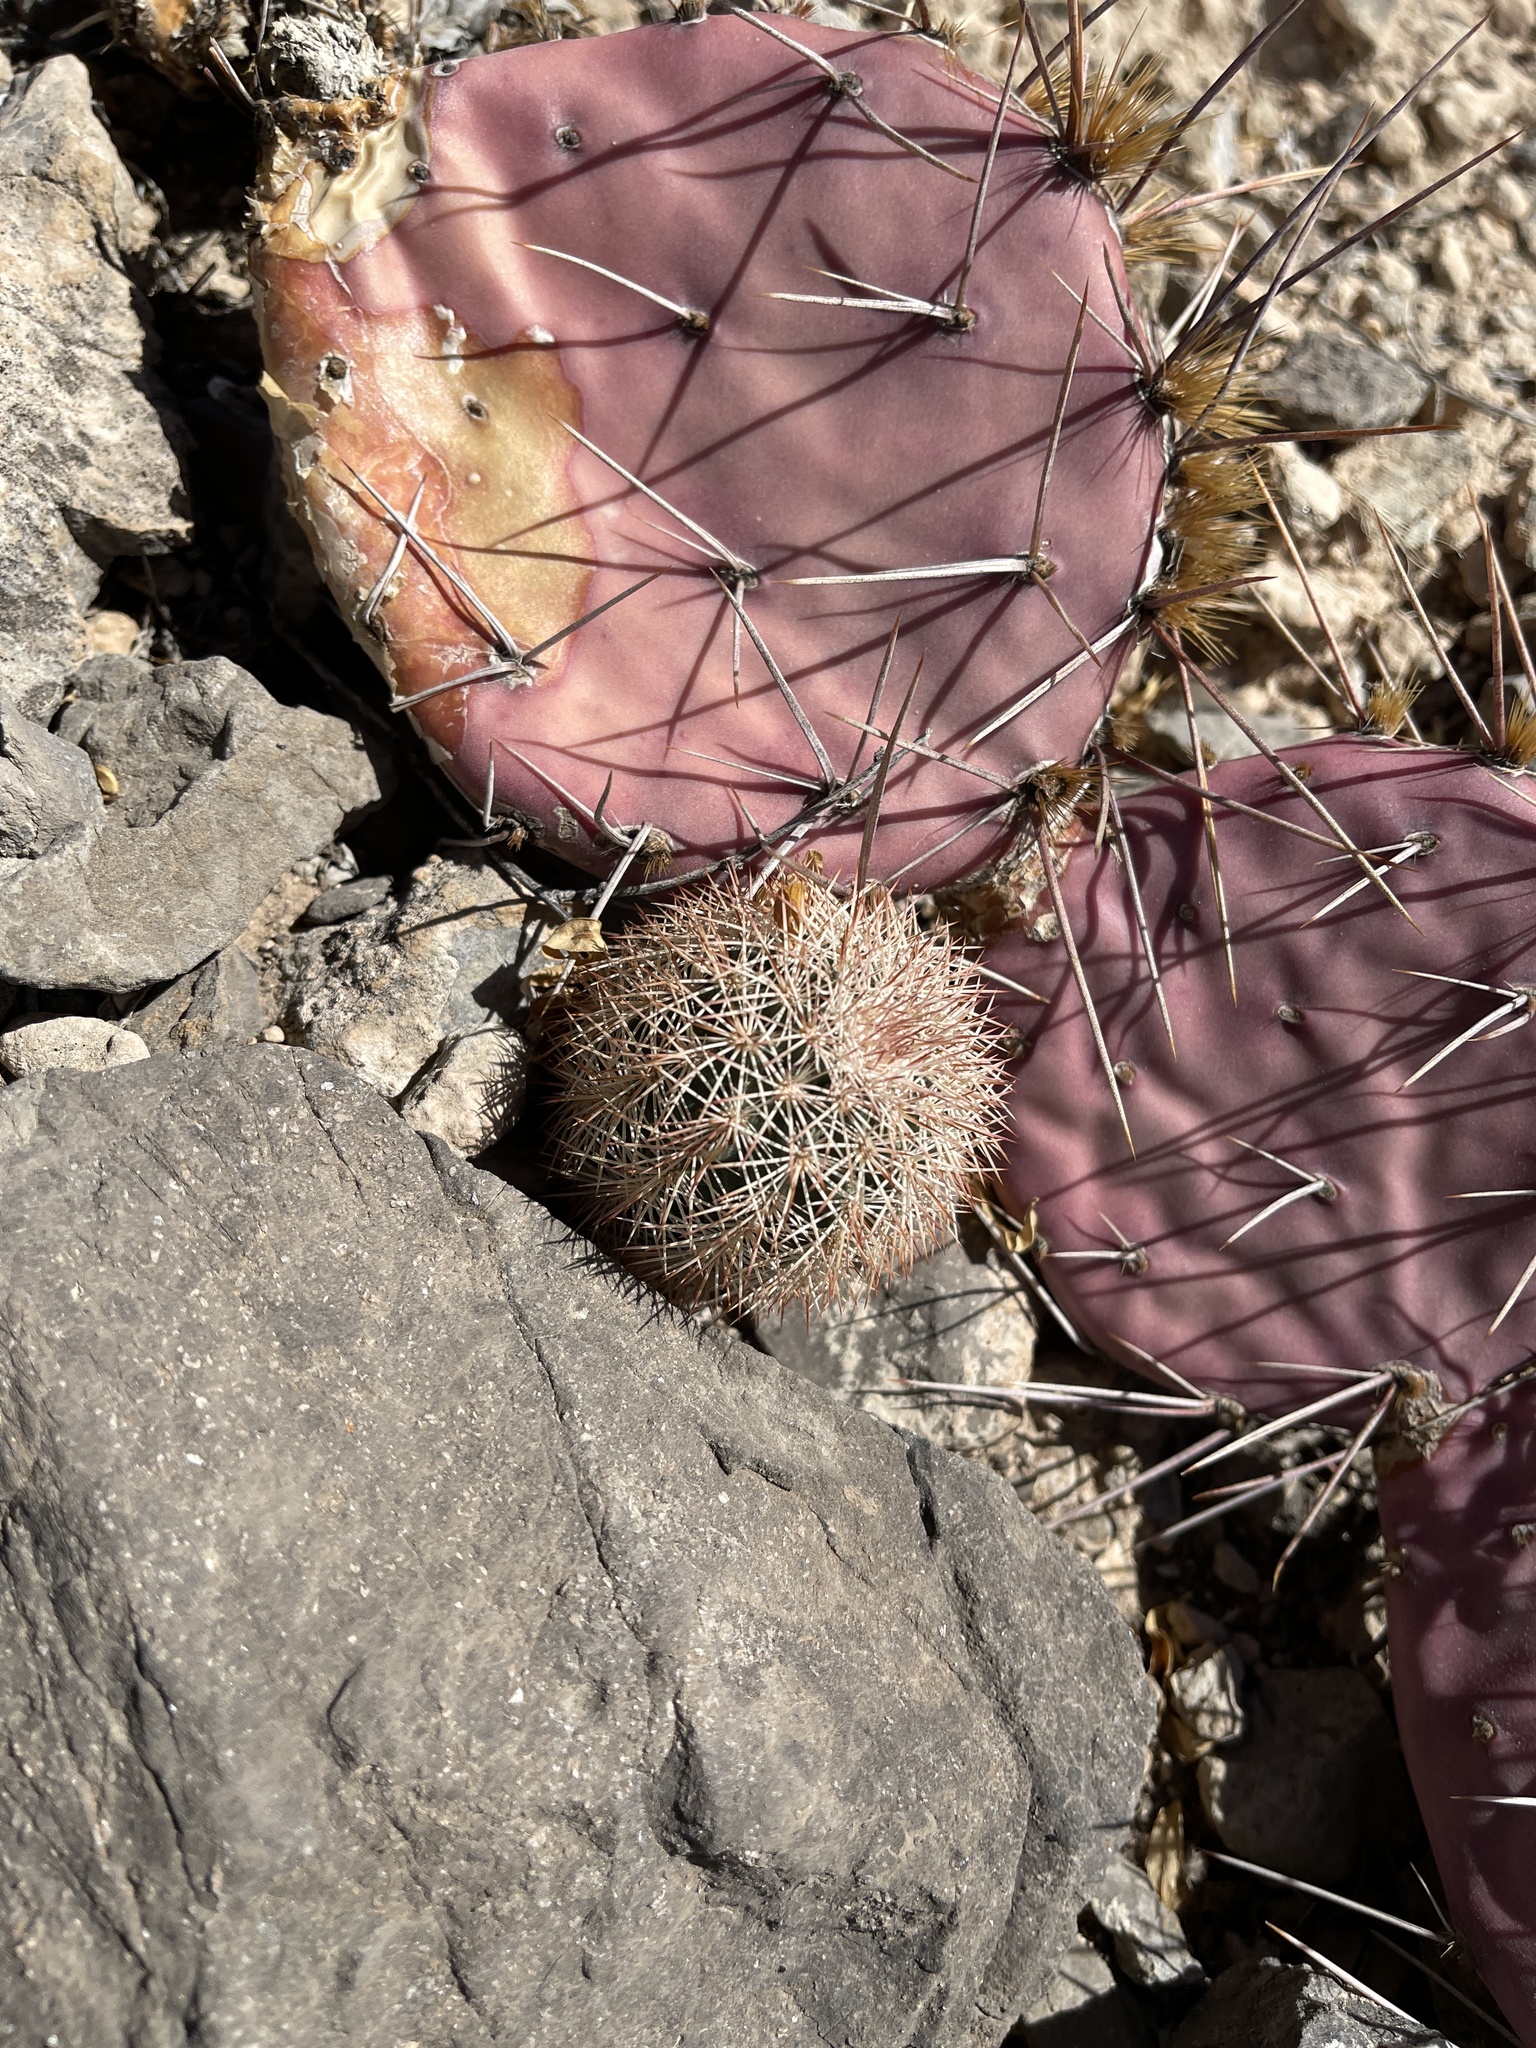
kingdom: Plantae
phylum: Tracheophyta
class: Magnoliopsida
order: Caryophyllales
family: Cactaceae
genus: Echinocereus
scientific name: Echinocereus dasyacanthus
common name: Spiny hedgehog cactus
